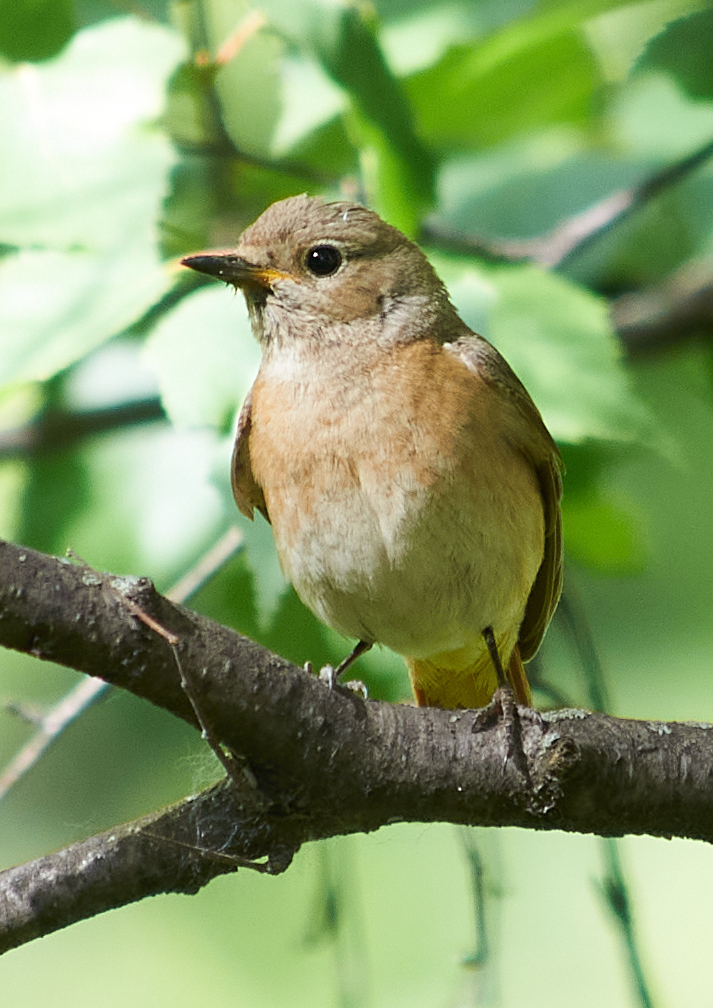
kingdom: Animalia
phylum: Chordata
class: Aves
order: Passeriformes
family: Muscicapidae
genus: Phoenicurus
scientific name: Phoenicurus phoenicurus
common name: Common redstart
